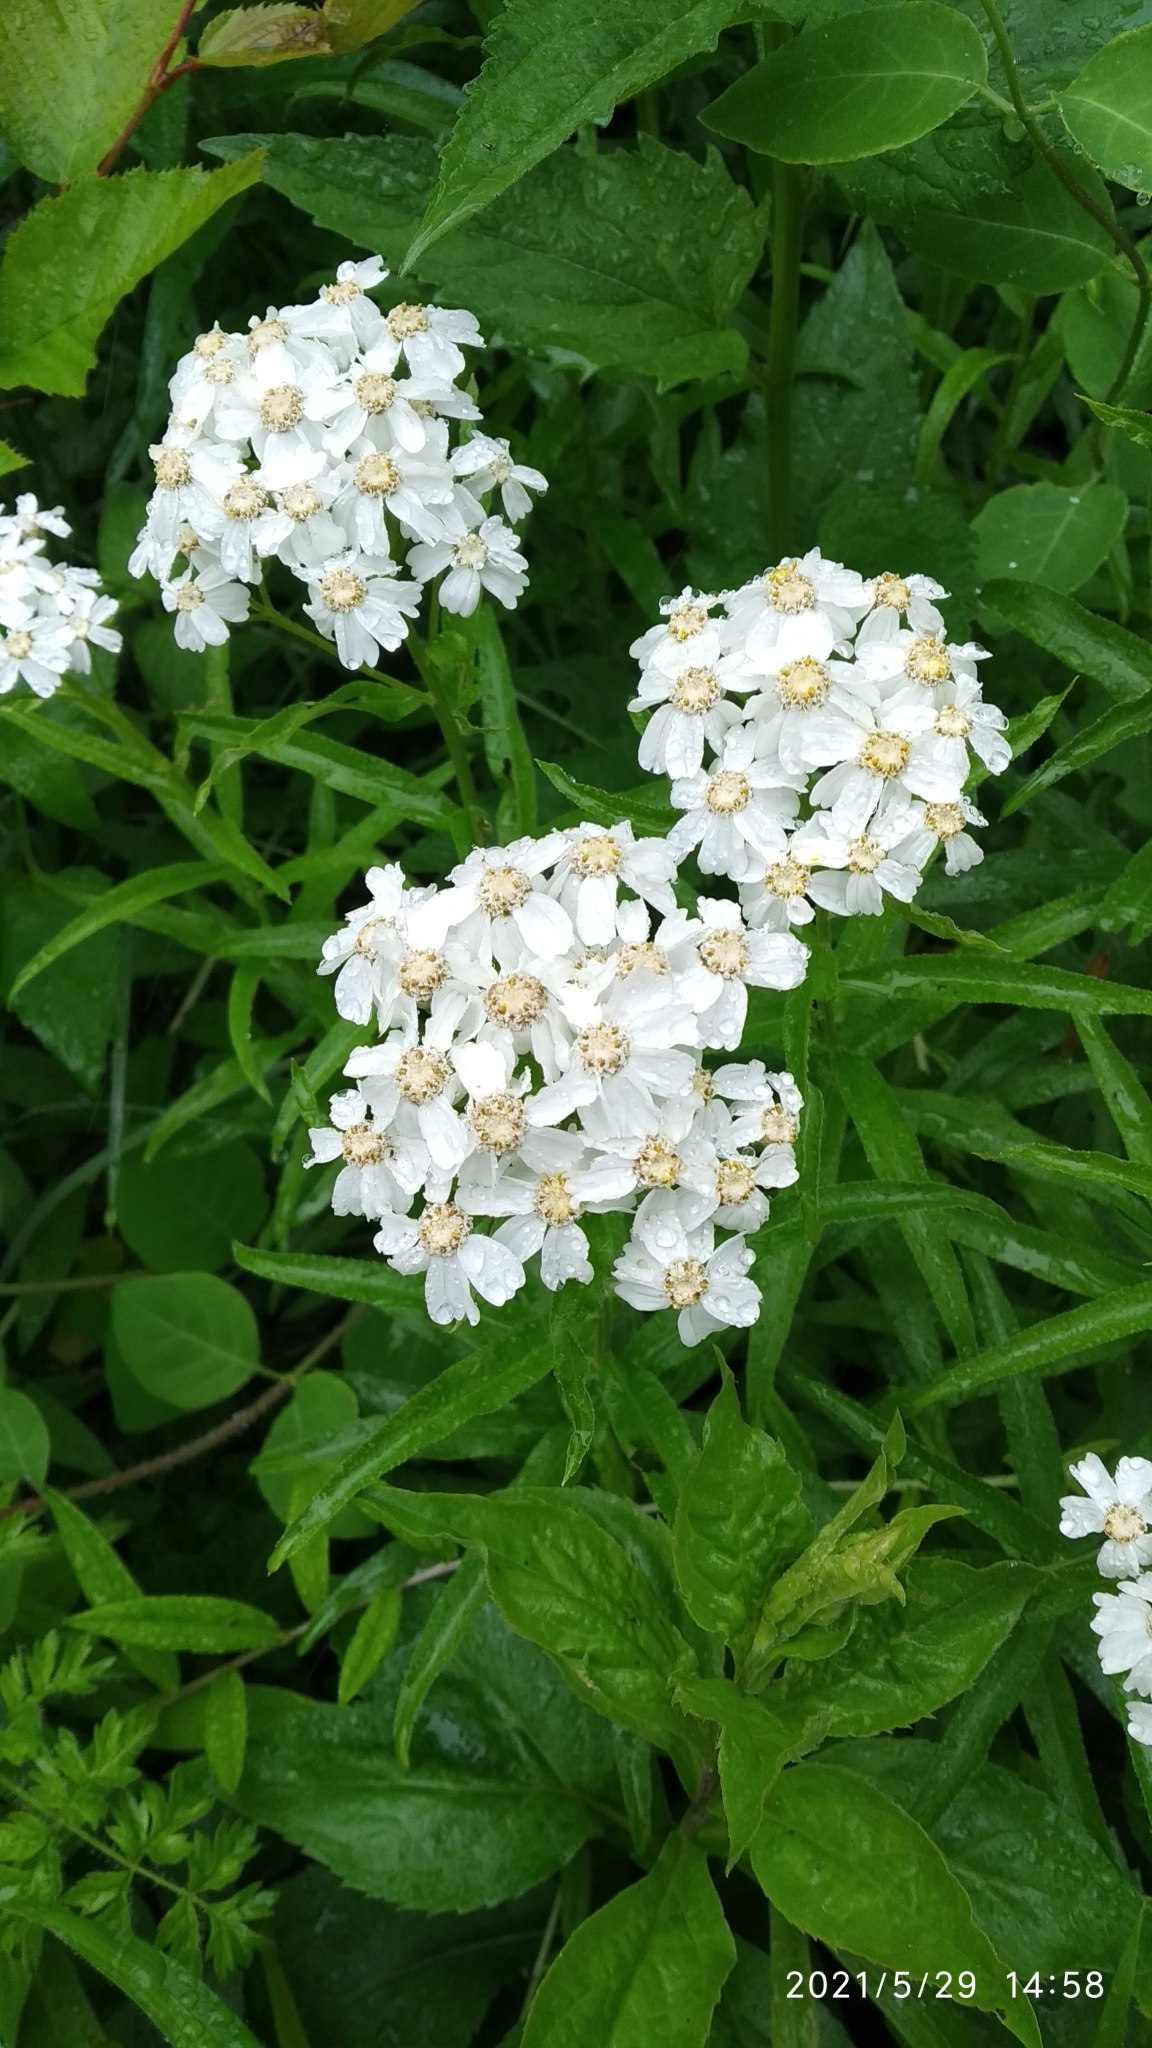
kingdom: Plantae
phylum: Tracheophyta
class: Magnoliopsida
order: Asterales
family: Asteraceae
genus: Achillea
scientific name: Achillea biserrata
